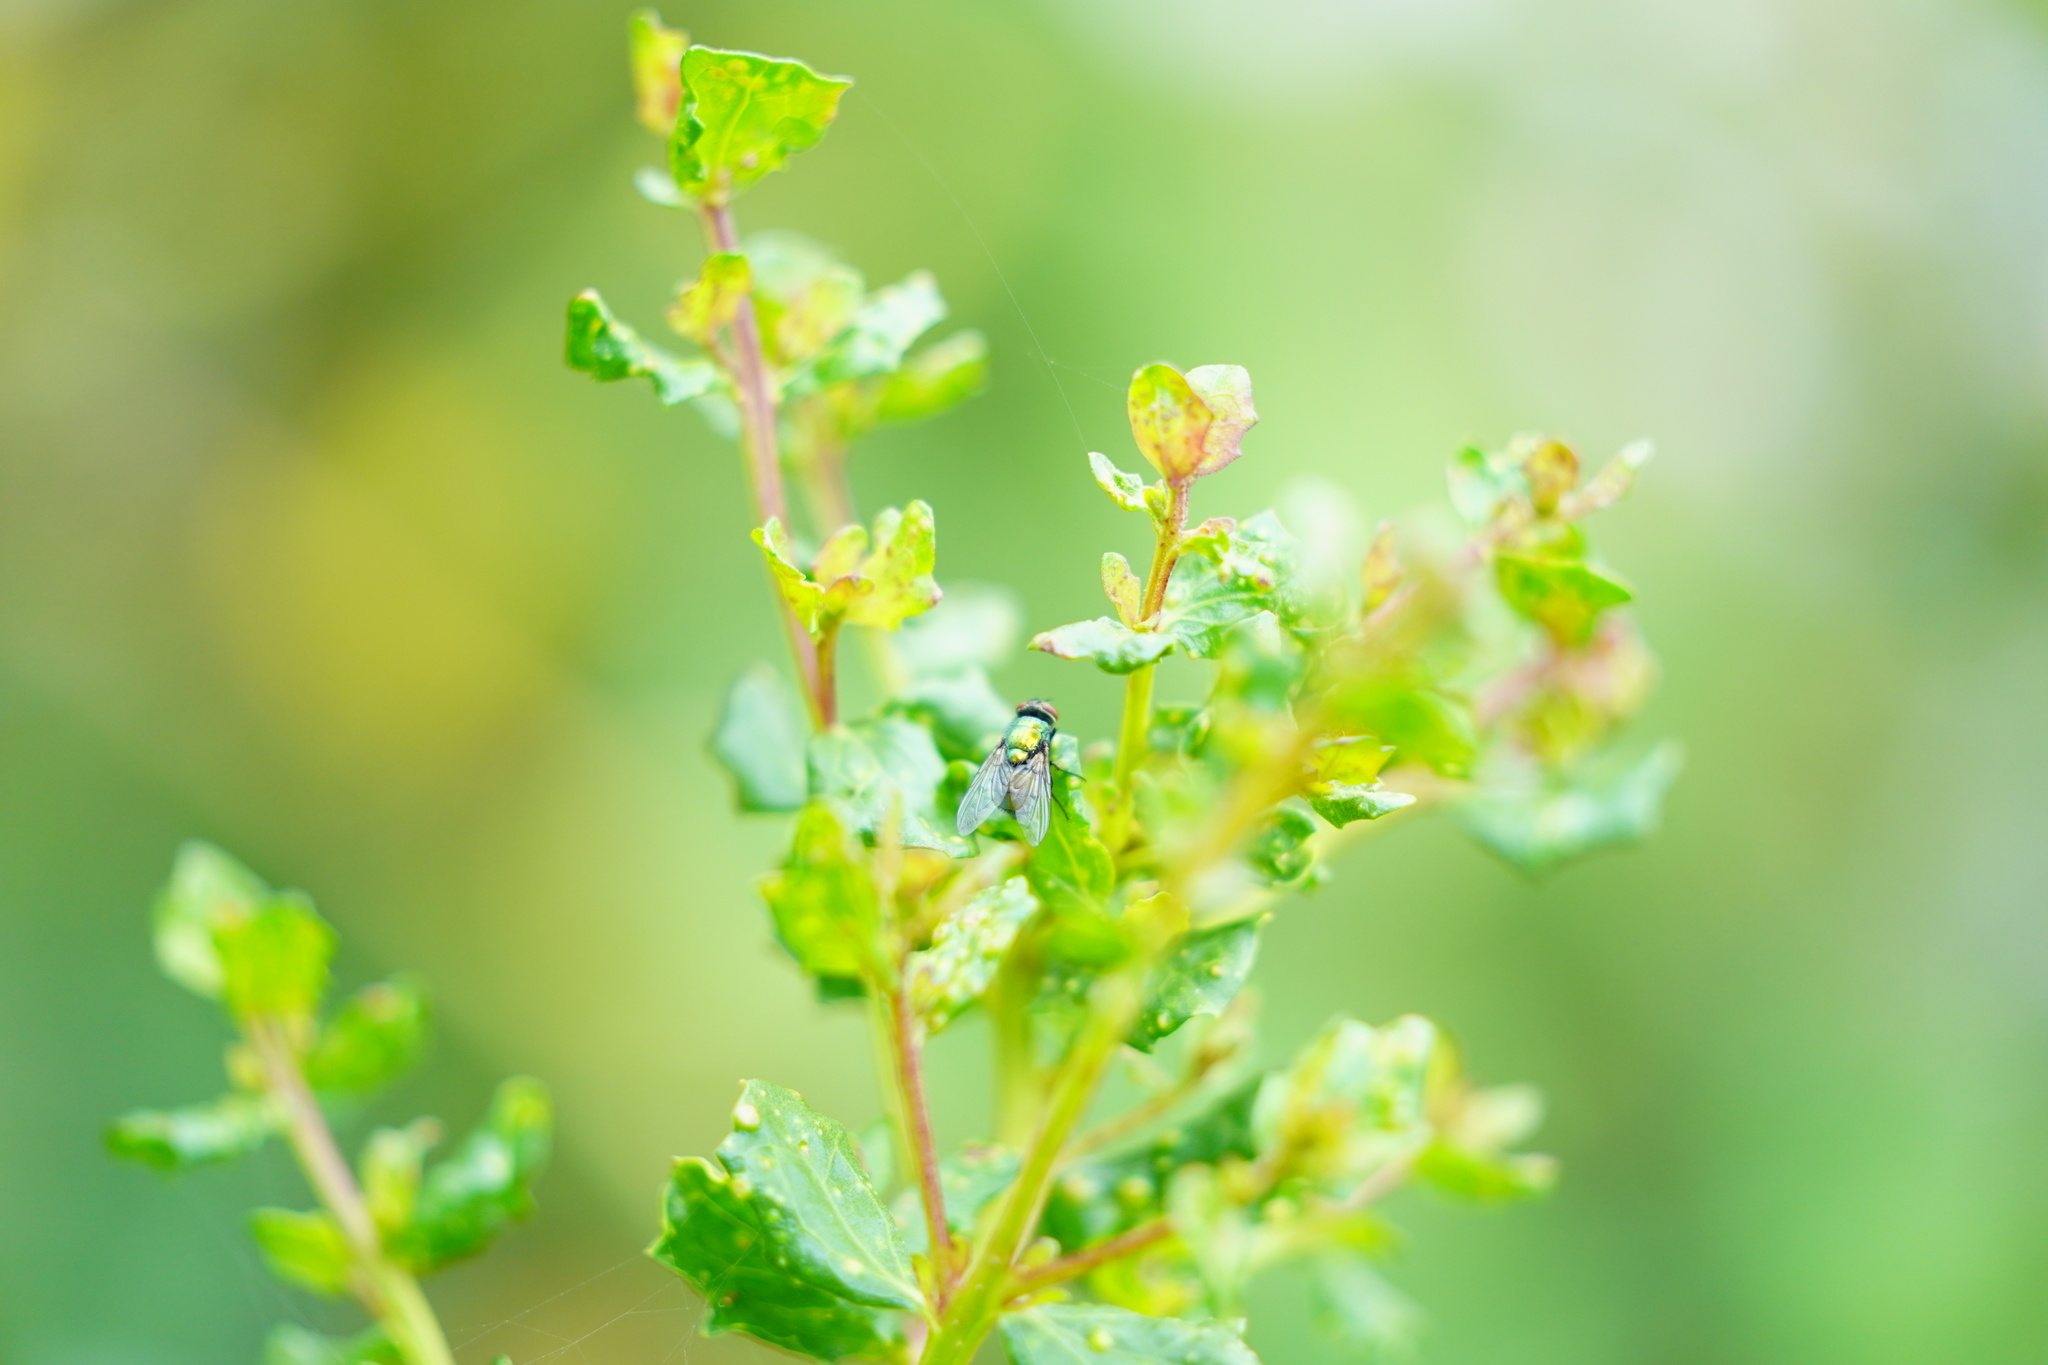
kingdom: Plantae
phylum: Tracheophyta
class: Magnoliopsida
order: Asterales
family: Asteraceae
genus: Baccharis
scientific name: Baccharis pilularis
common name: Coyotebrush
